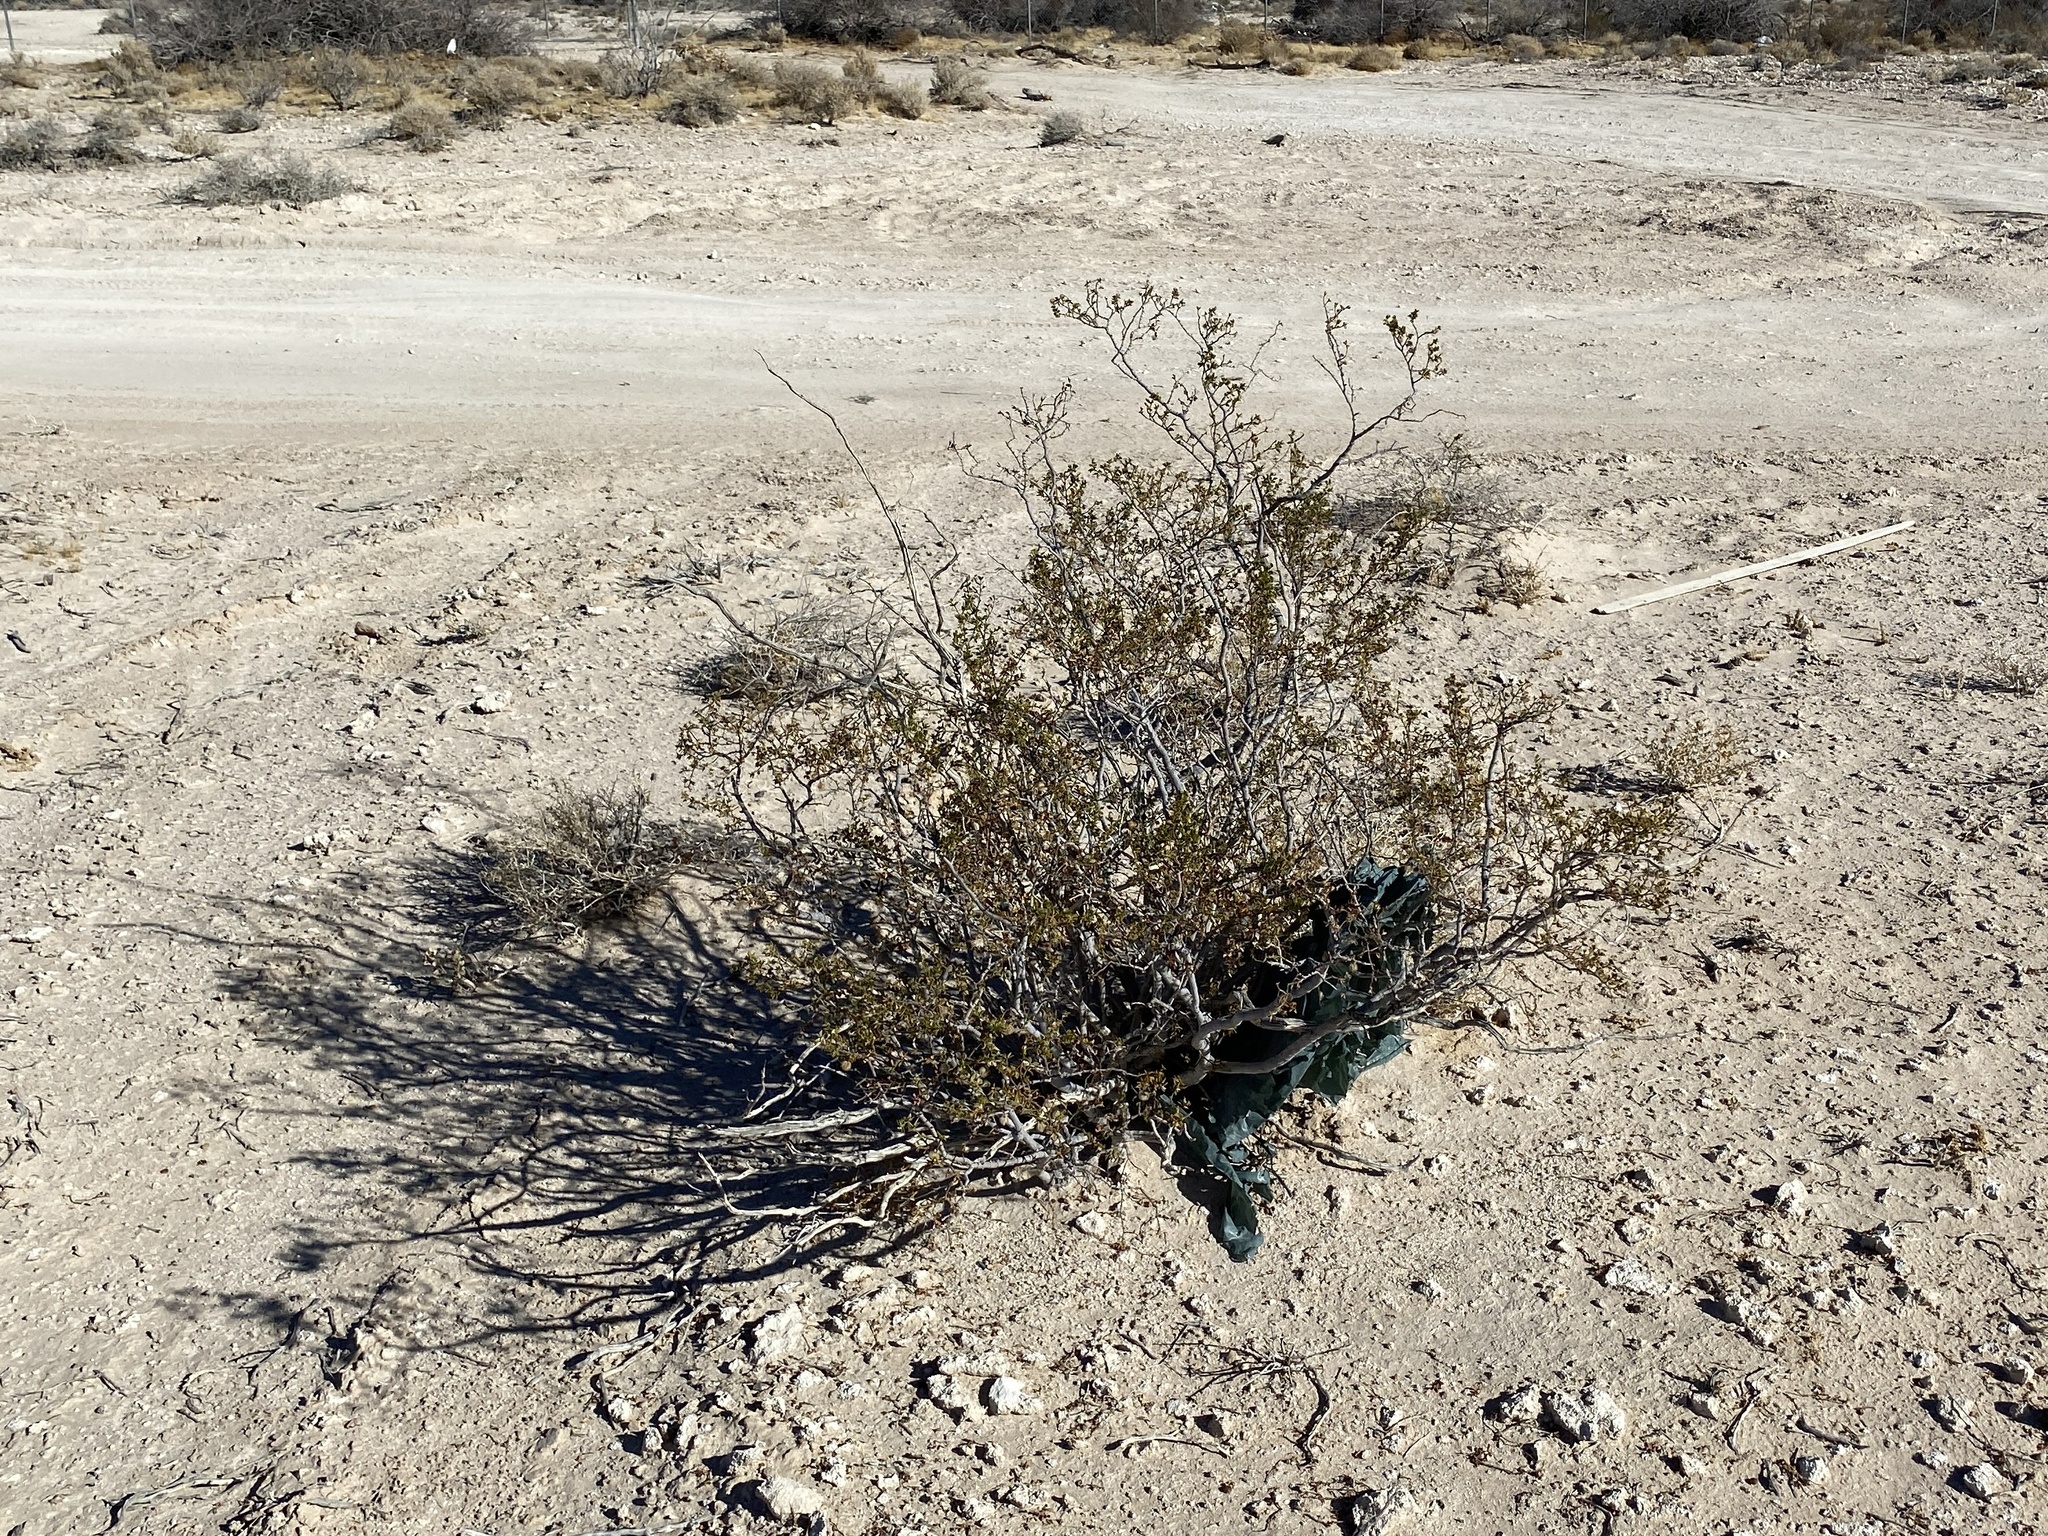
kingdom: Plantae
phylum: Tracheophyta
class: Magnoliopsida
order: Zygophyllales
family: Zygophyllaceae
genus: Larrea
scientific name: Larrea tridentata
